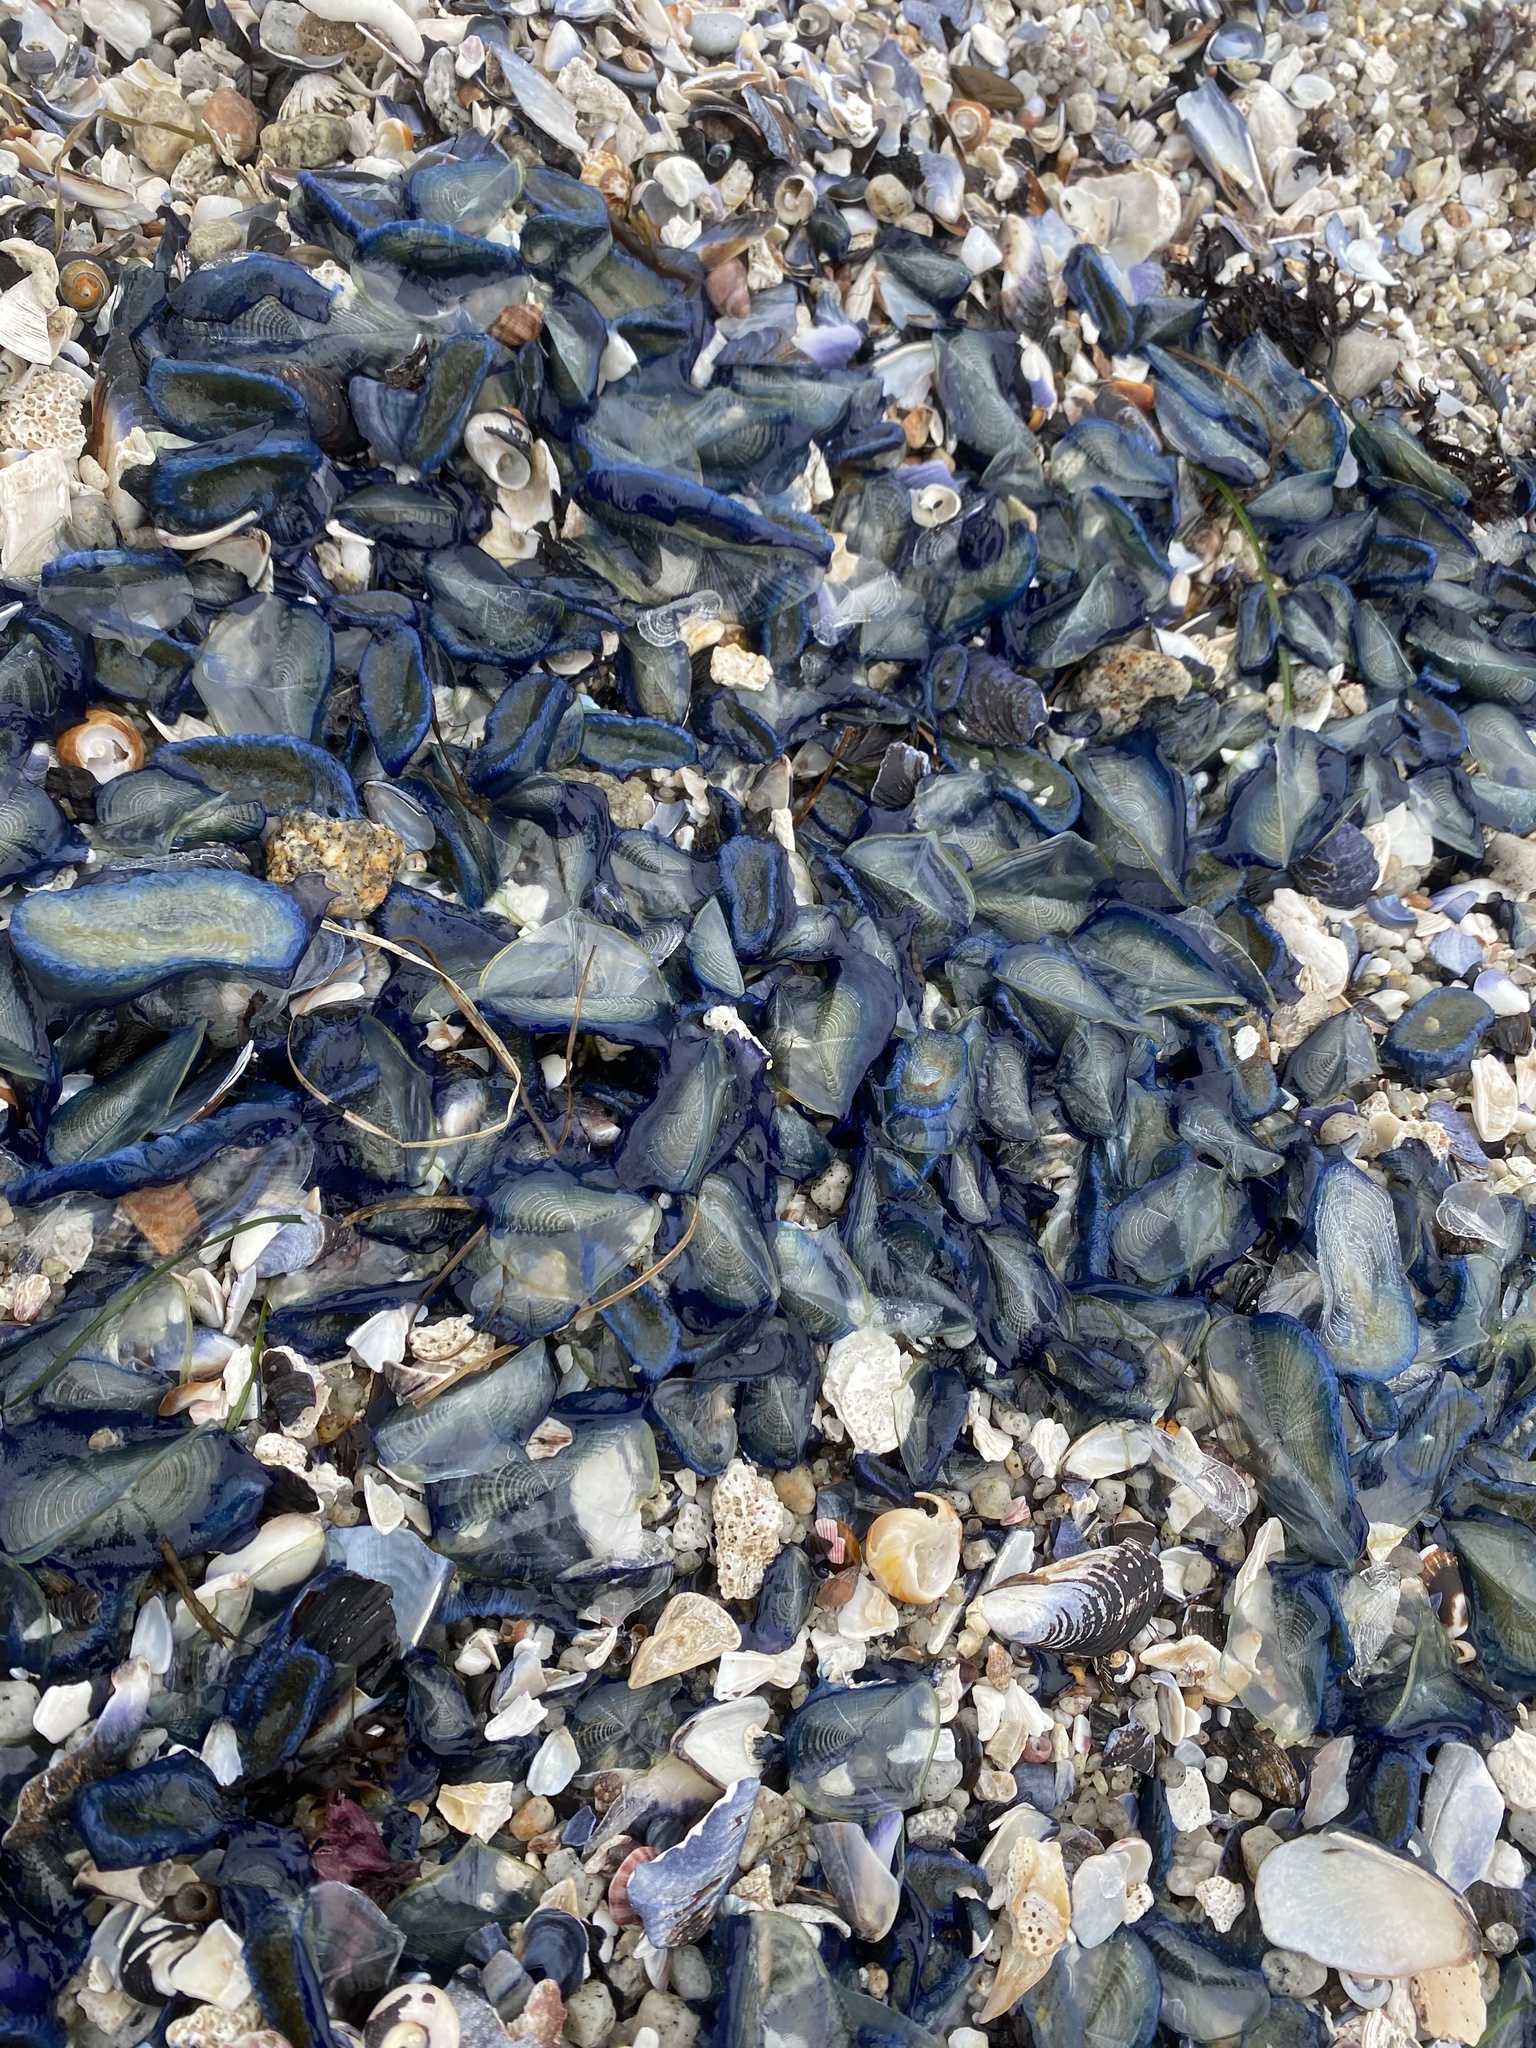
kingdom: Animalia
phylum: Cnidaria
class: Hydrozoa
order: Anthoathecata
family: Porpitidae
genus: Velella
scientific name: Velella velella
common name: By-the-wind-sailor
